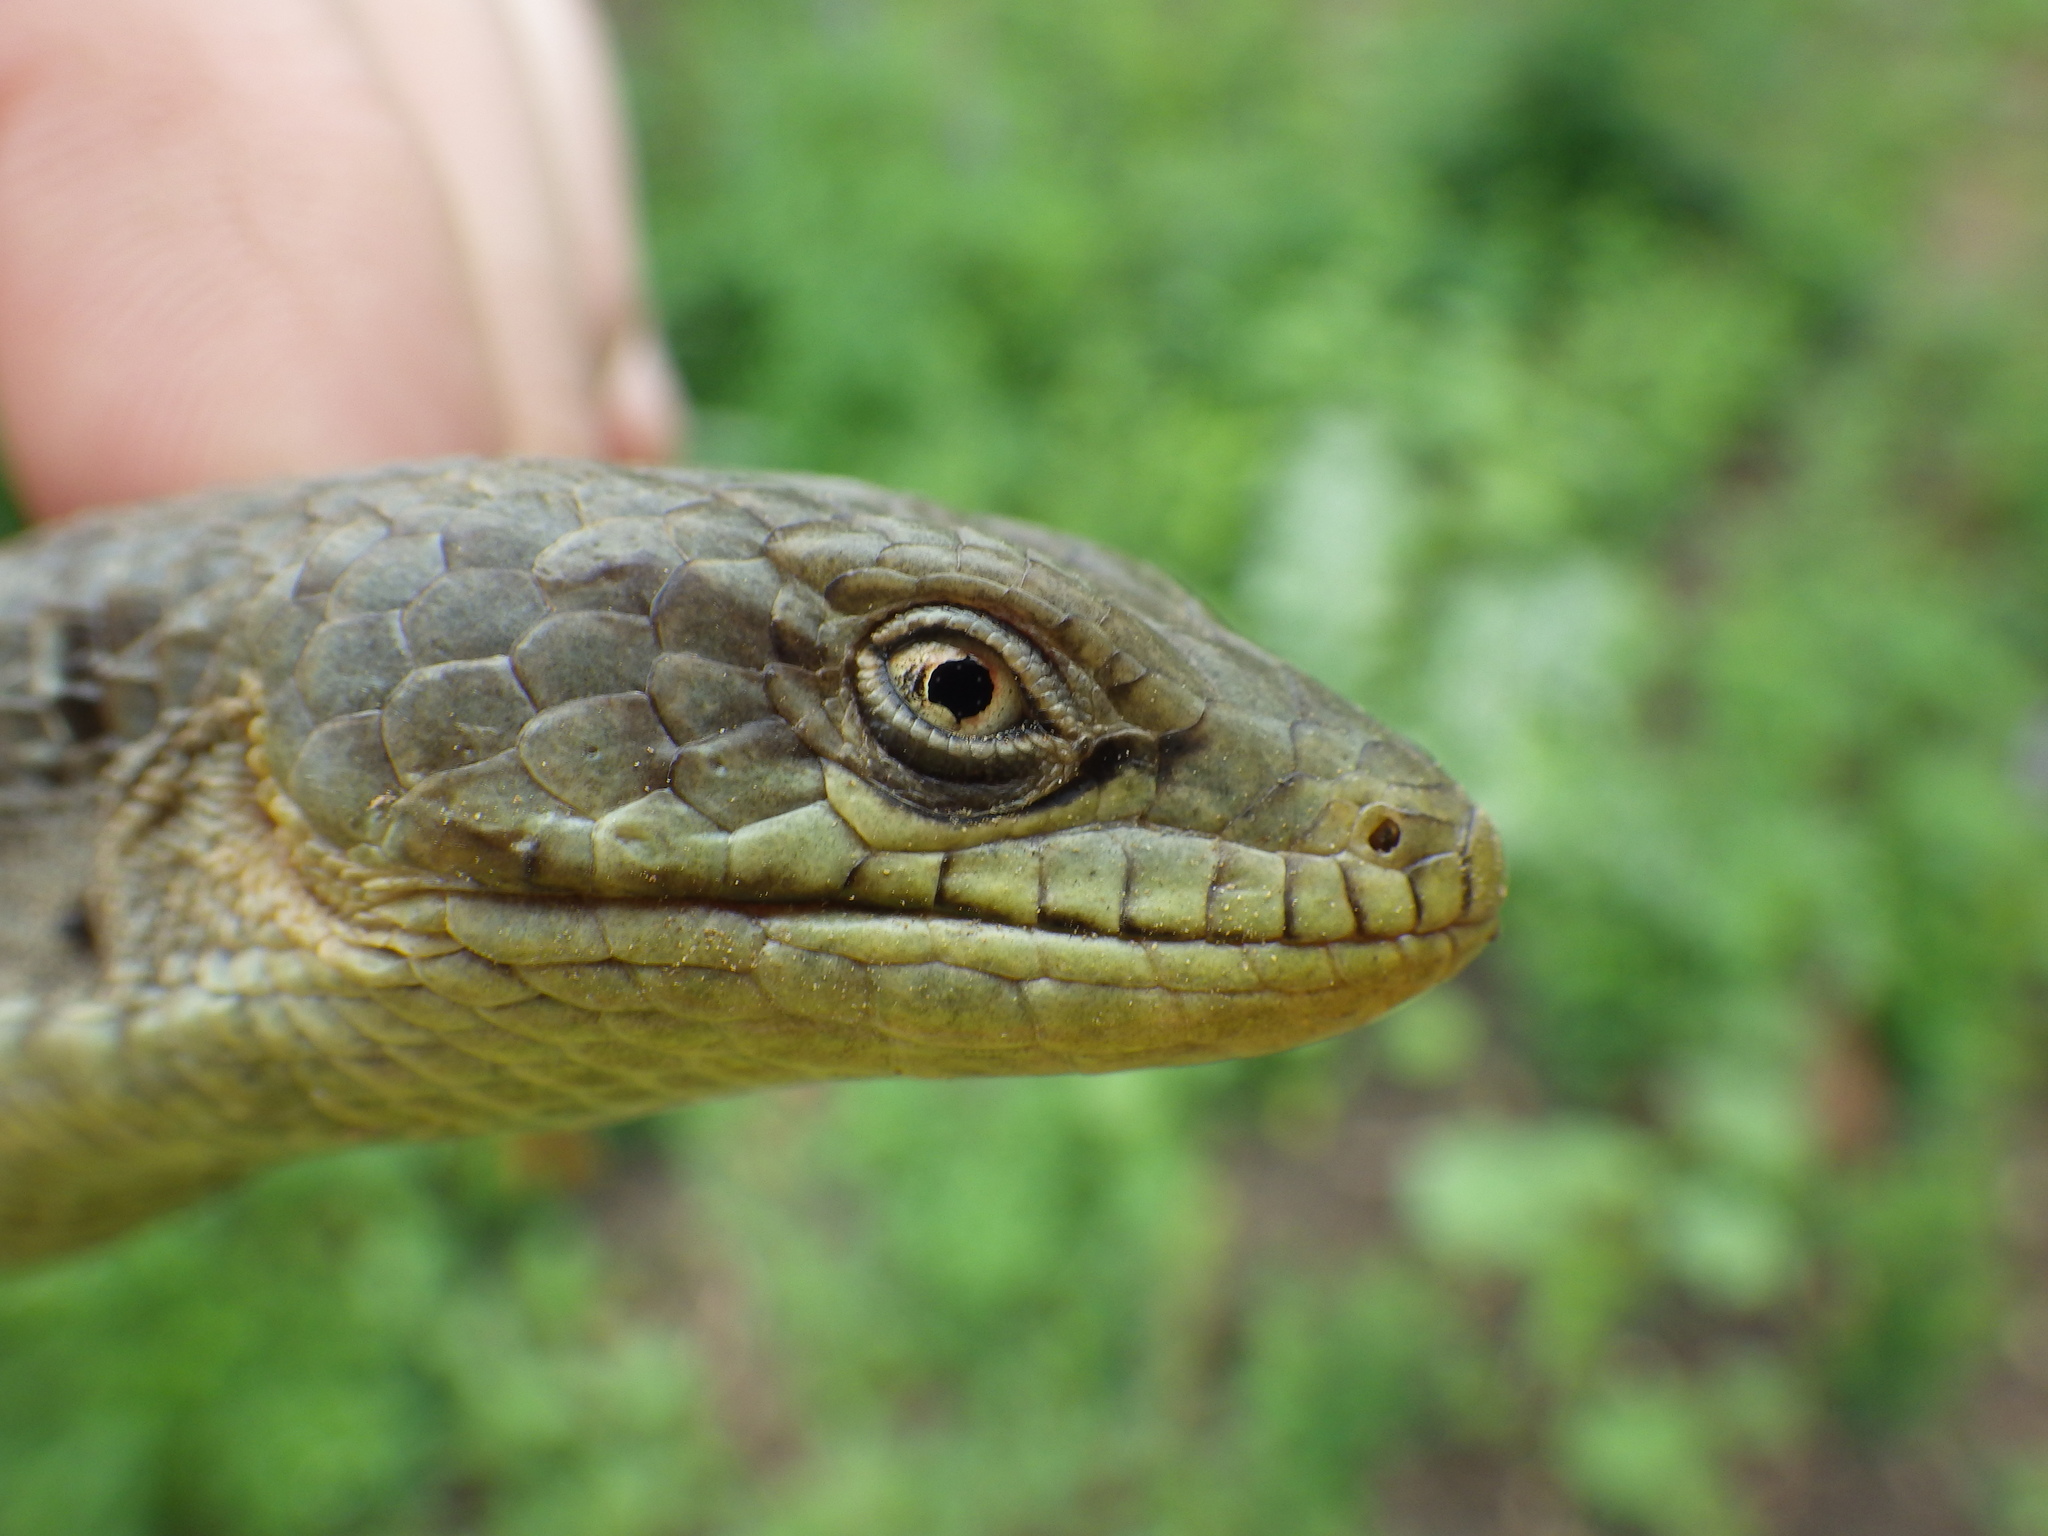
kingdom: Animalia
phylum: Chordata
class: Squamata
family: Anguidae
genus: Elgaria
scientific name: Elgaria multicarinata
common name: Southern alligator lizard
